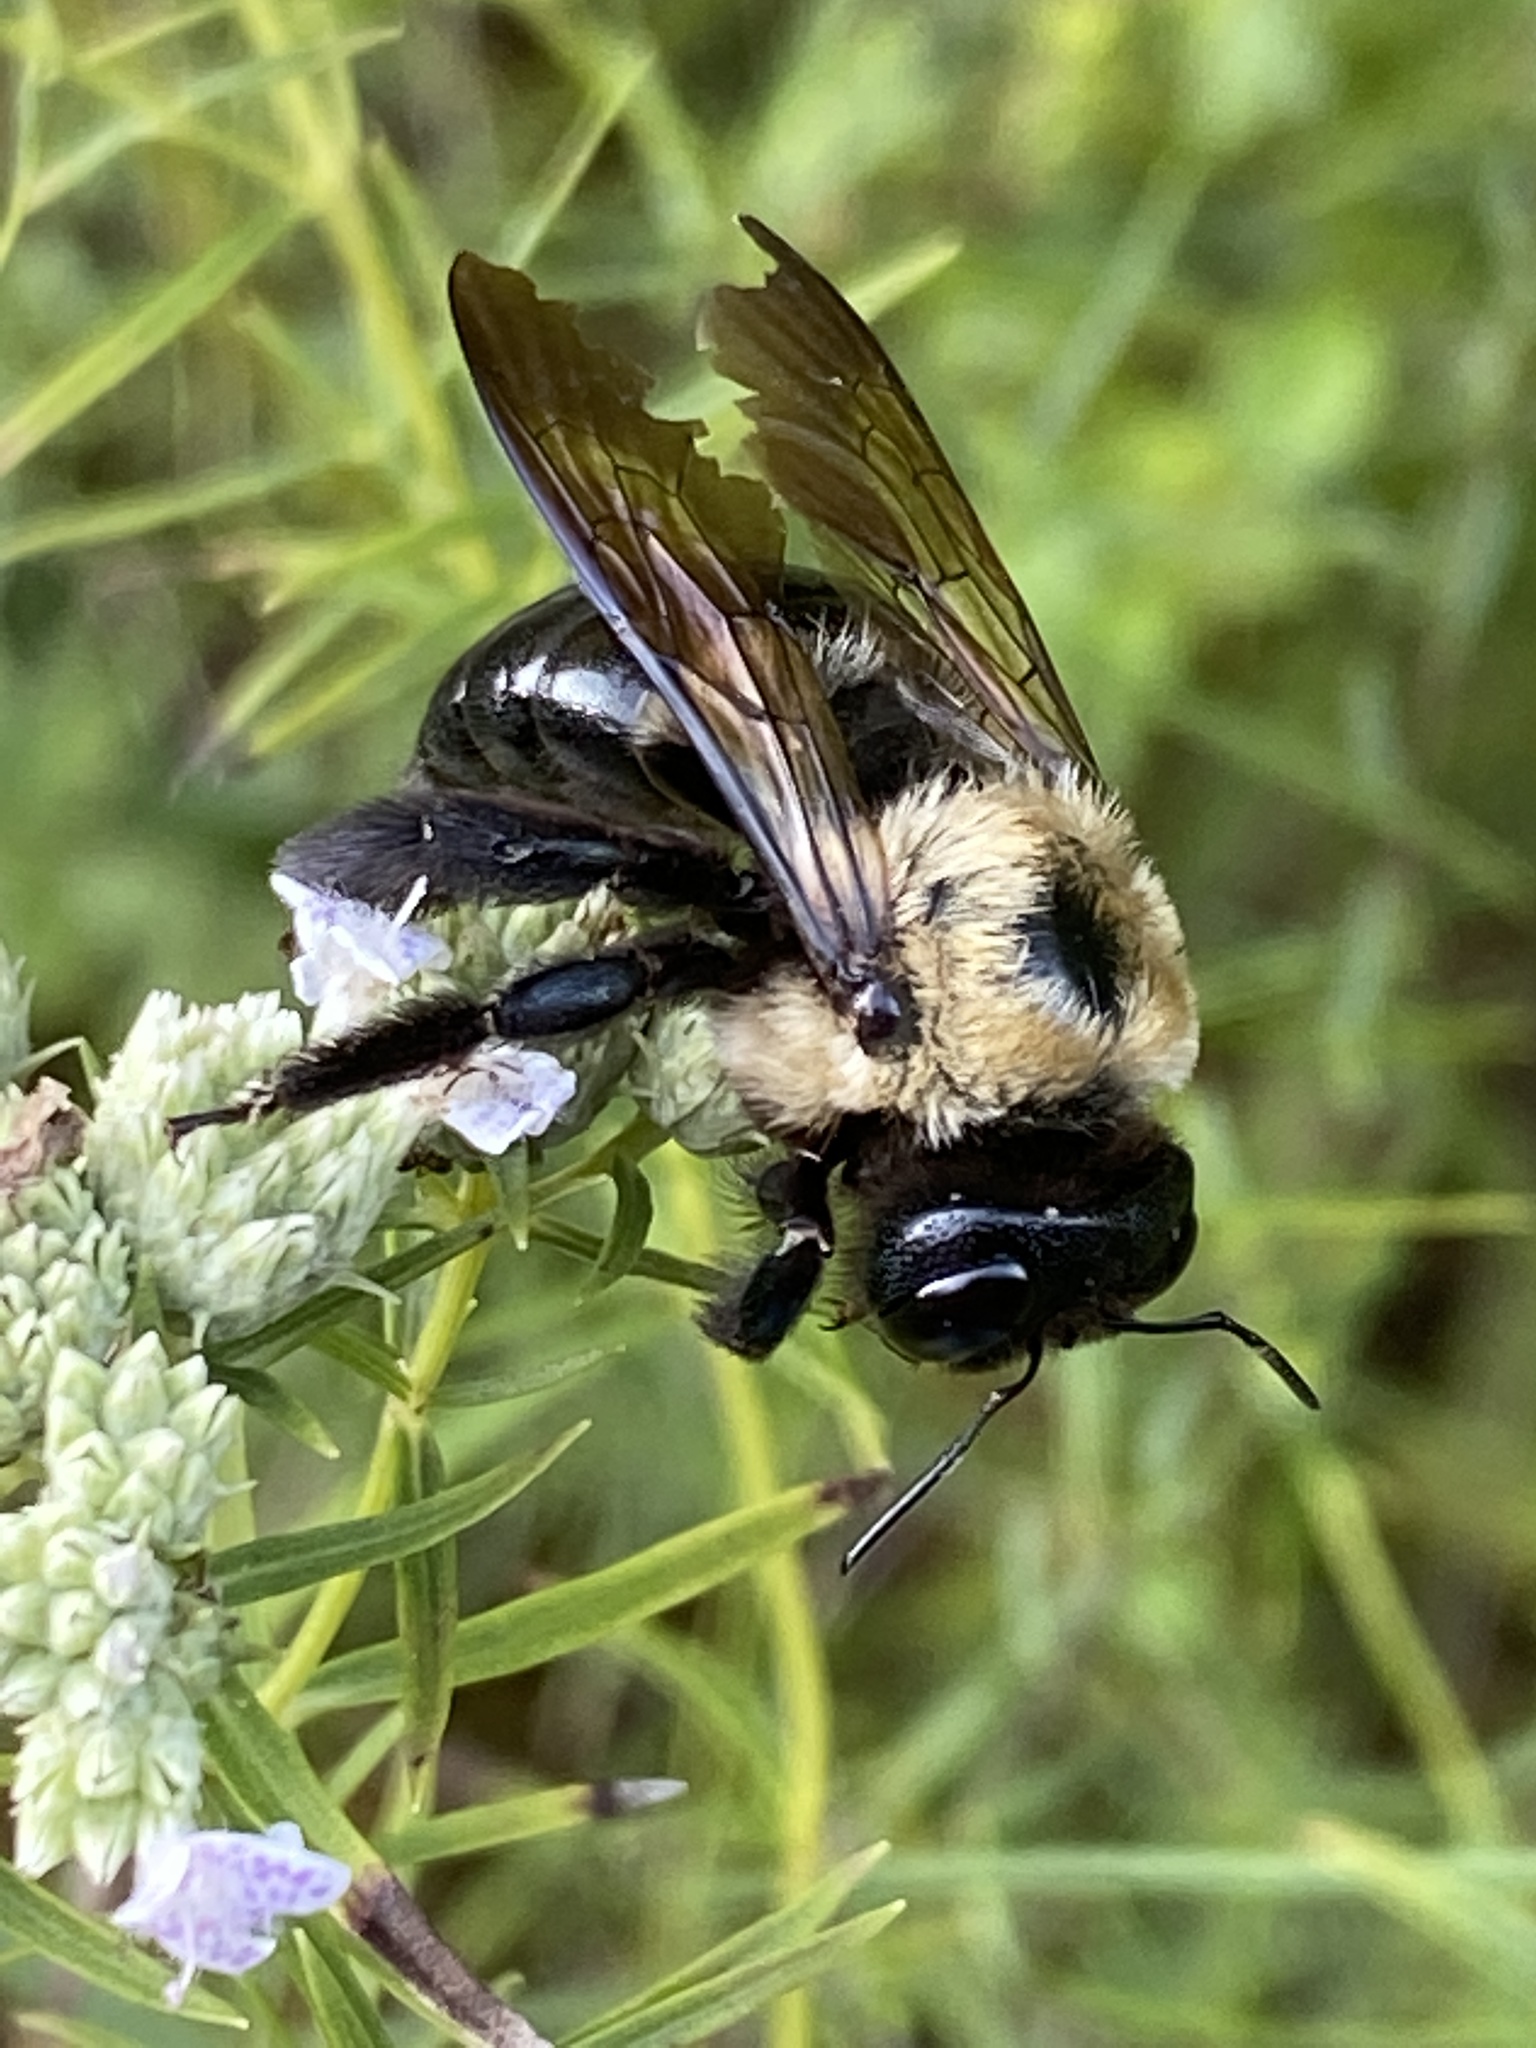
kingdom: Animalia
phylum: Arthropoda
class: Insecta
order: Hymenoptera
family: Apidae
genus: Xylocopa
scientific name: Xylocopa virginica
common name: Carpenter bee
